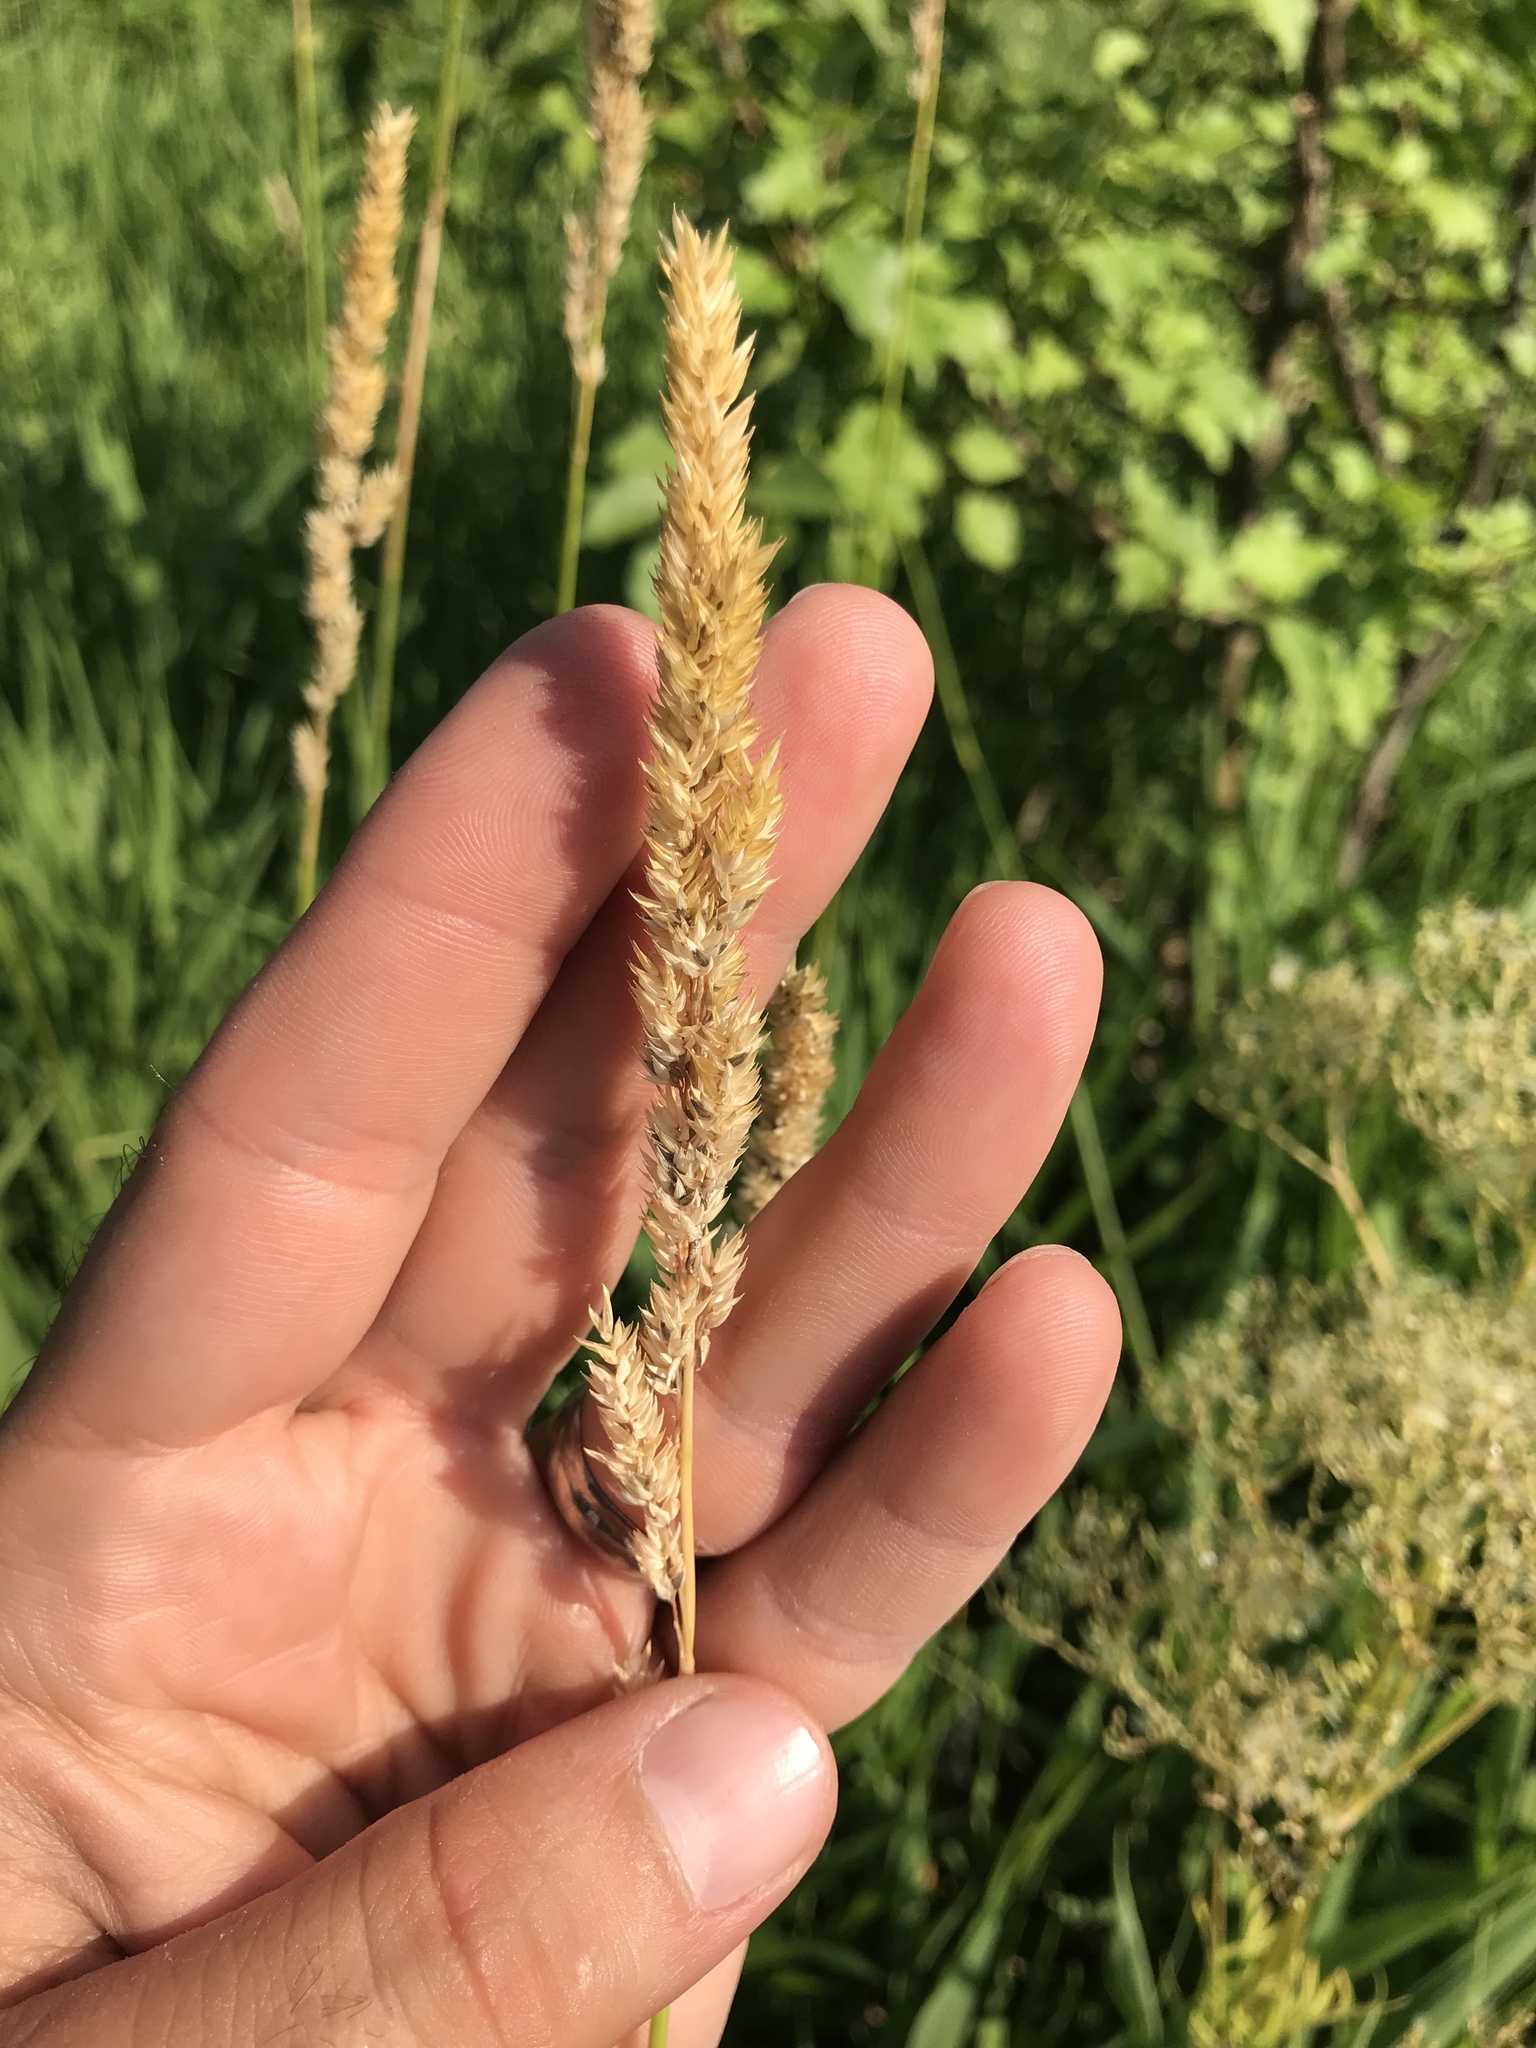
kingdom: Plantae
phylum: Tracheophyta
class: Liliopsida
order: Poales
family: Poaceae
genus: Phalaris
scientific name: Phalaris arundinacea
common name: Reed canary-grass
